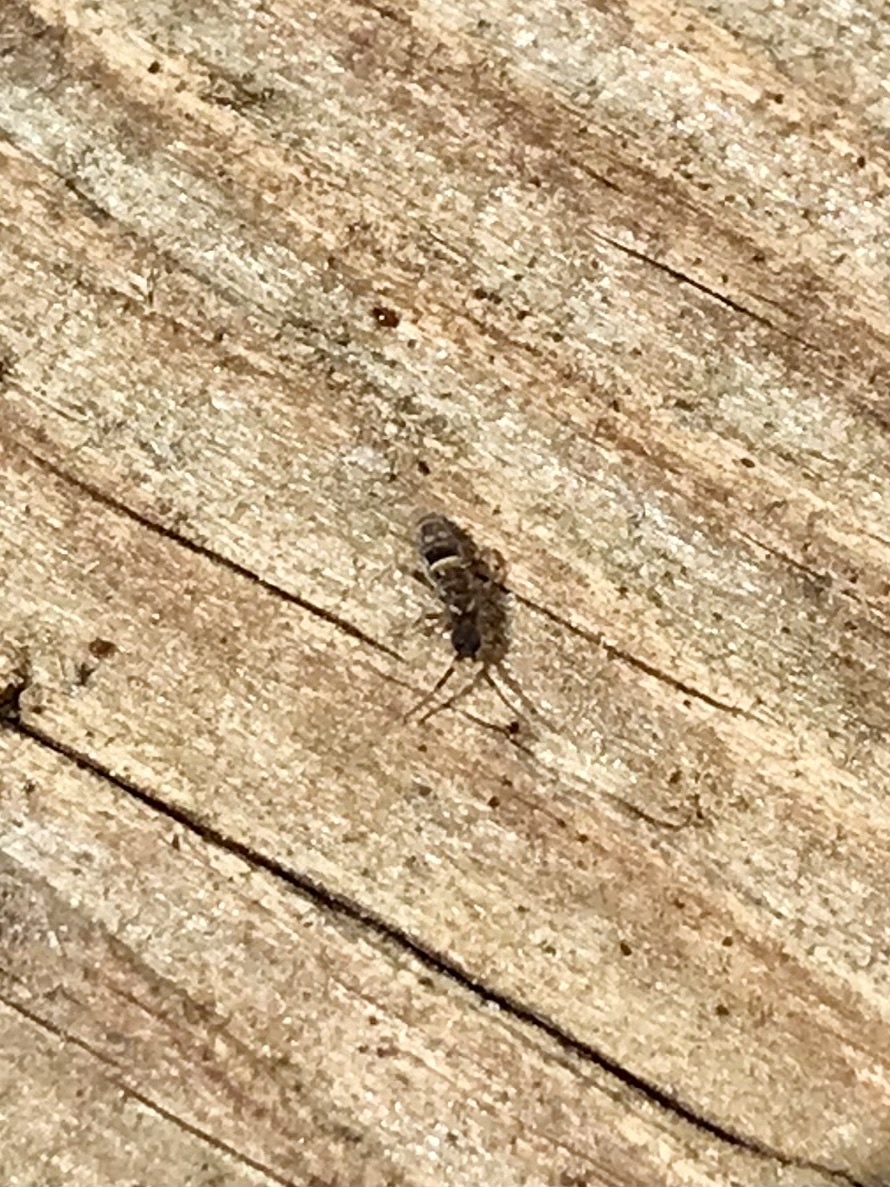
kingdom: Animalia
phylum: Arthropoda
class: Collembola
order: Entomobryomorpha
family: Orchesellidae
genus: Orchesella
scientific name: Orchesella cincta
